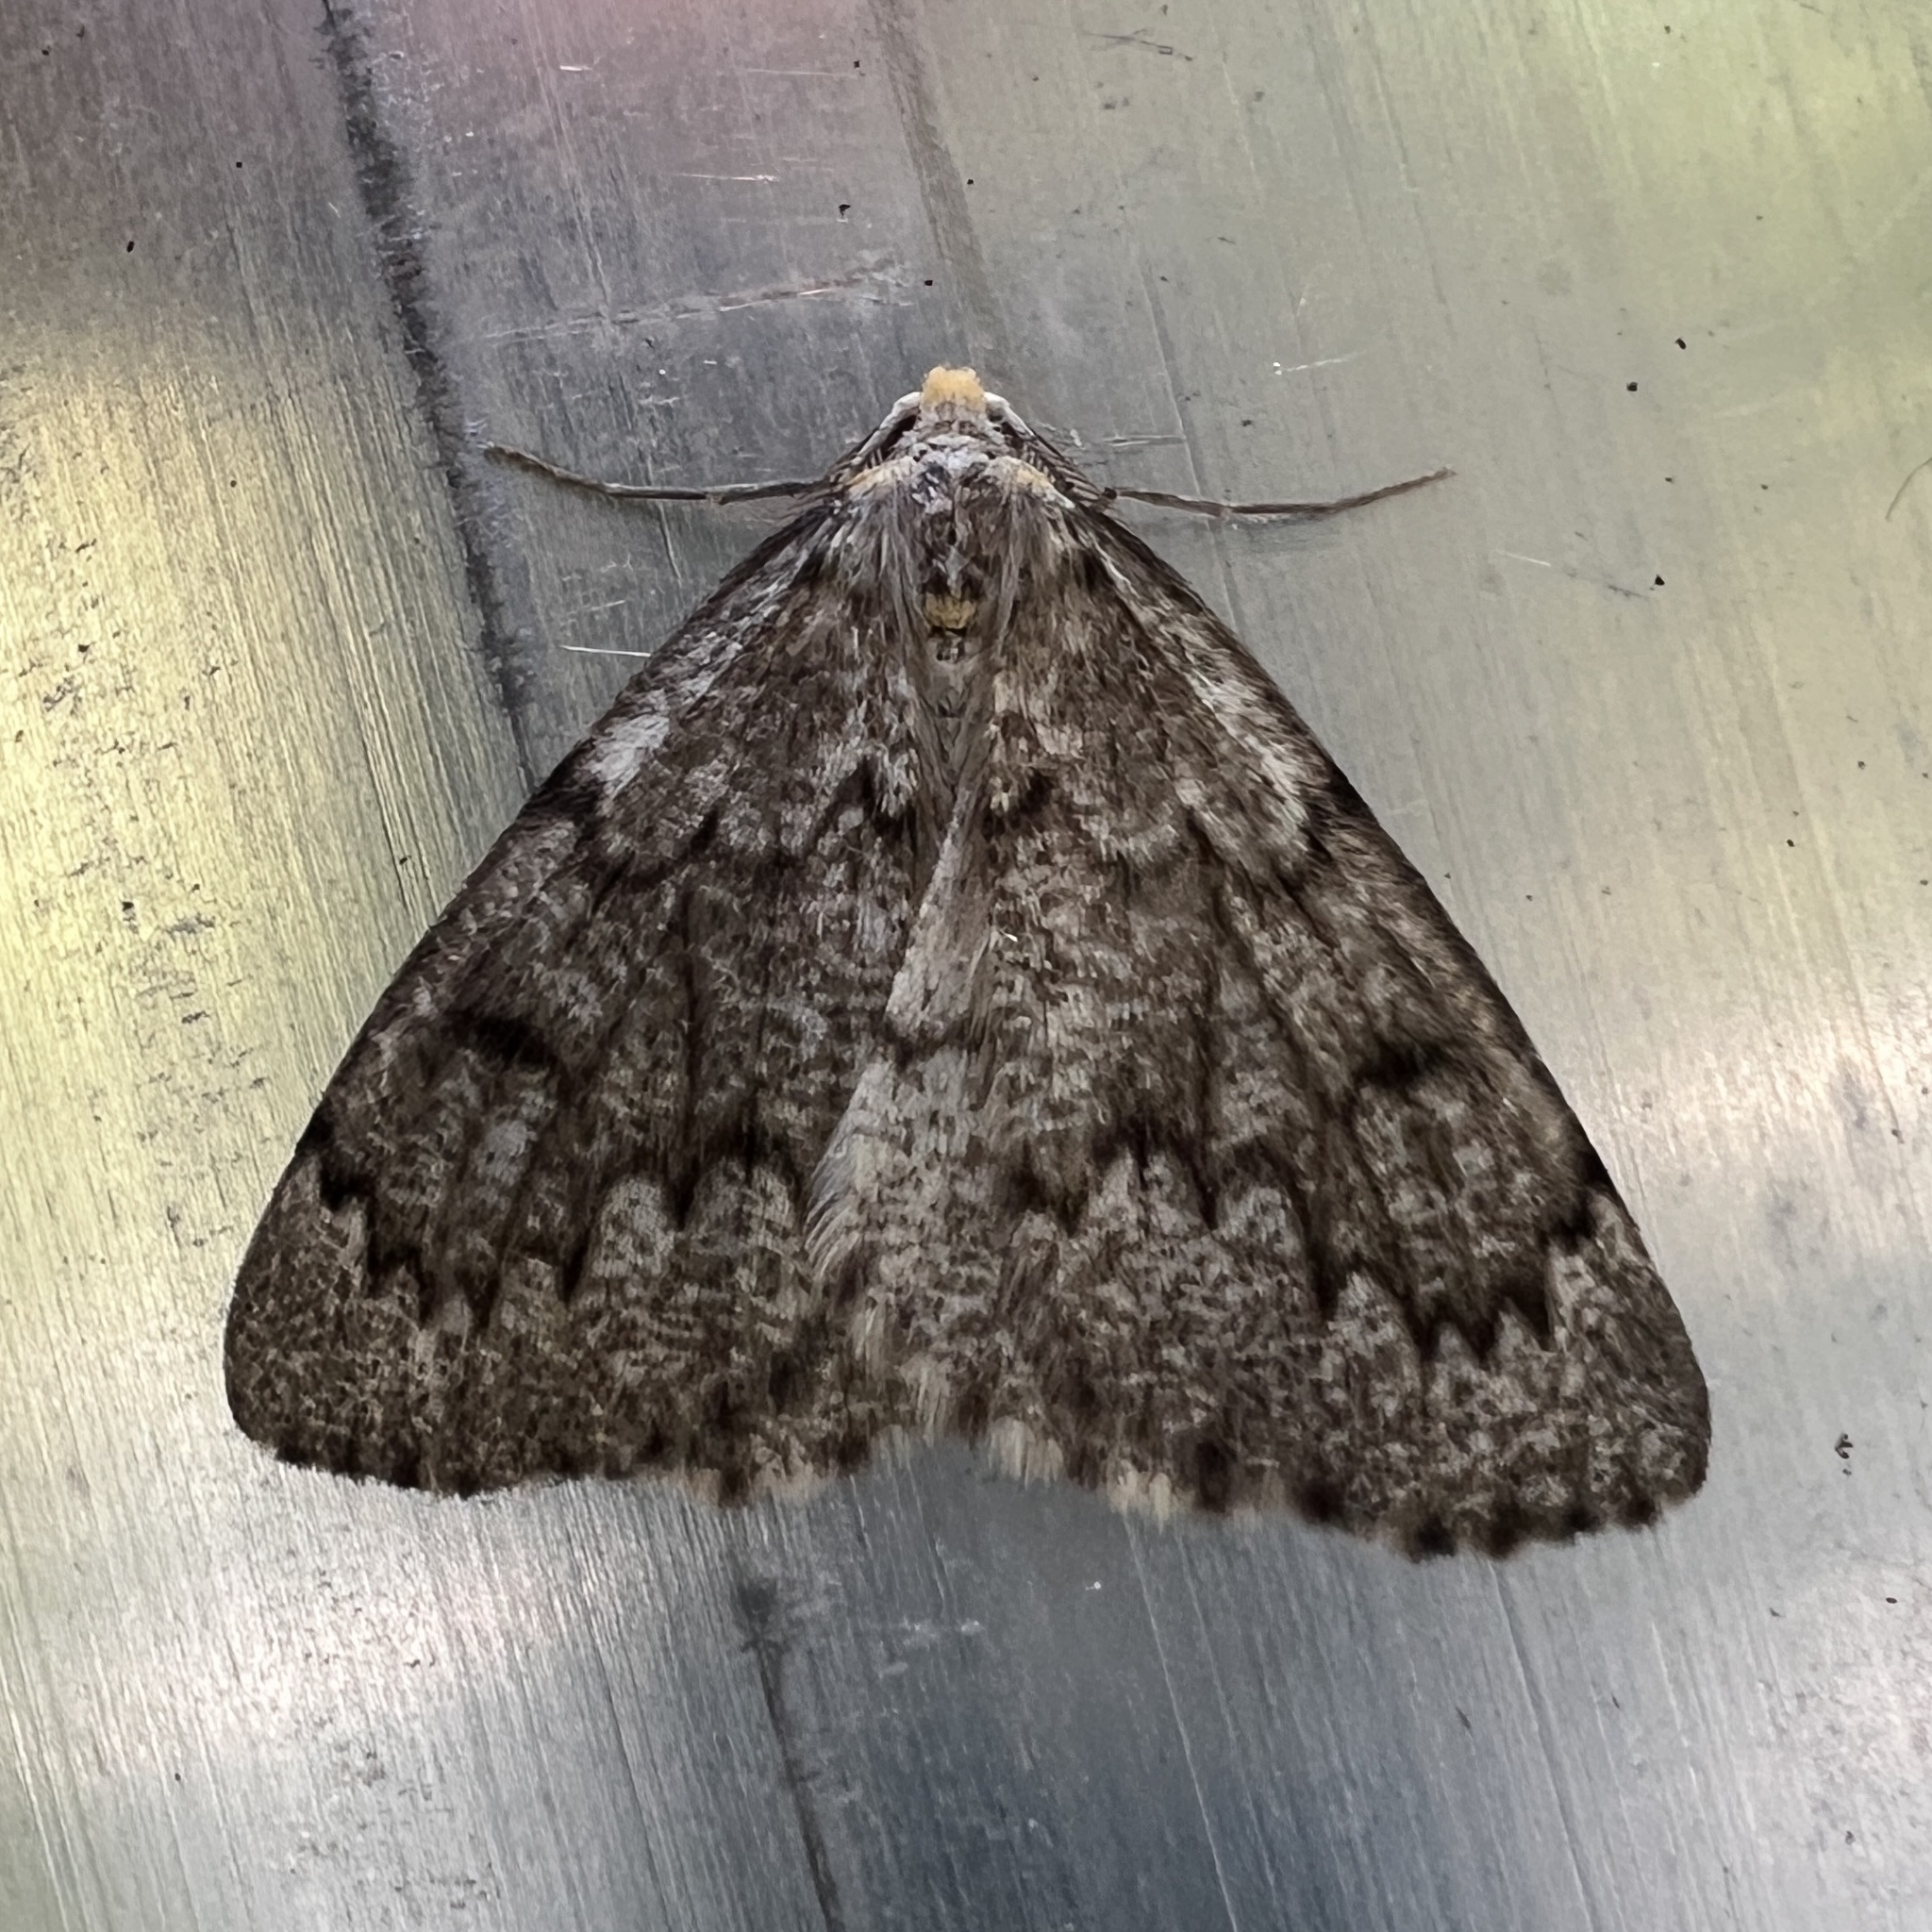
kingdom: Animalia
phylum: Arthropoda
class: Insecta
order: Lepidoptera
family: Geometridae
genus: Nepytia
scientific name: Nepytia canosaria
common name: False hemlock looper
